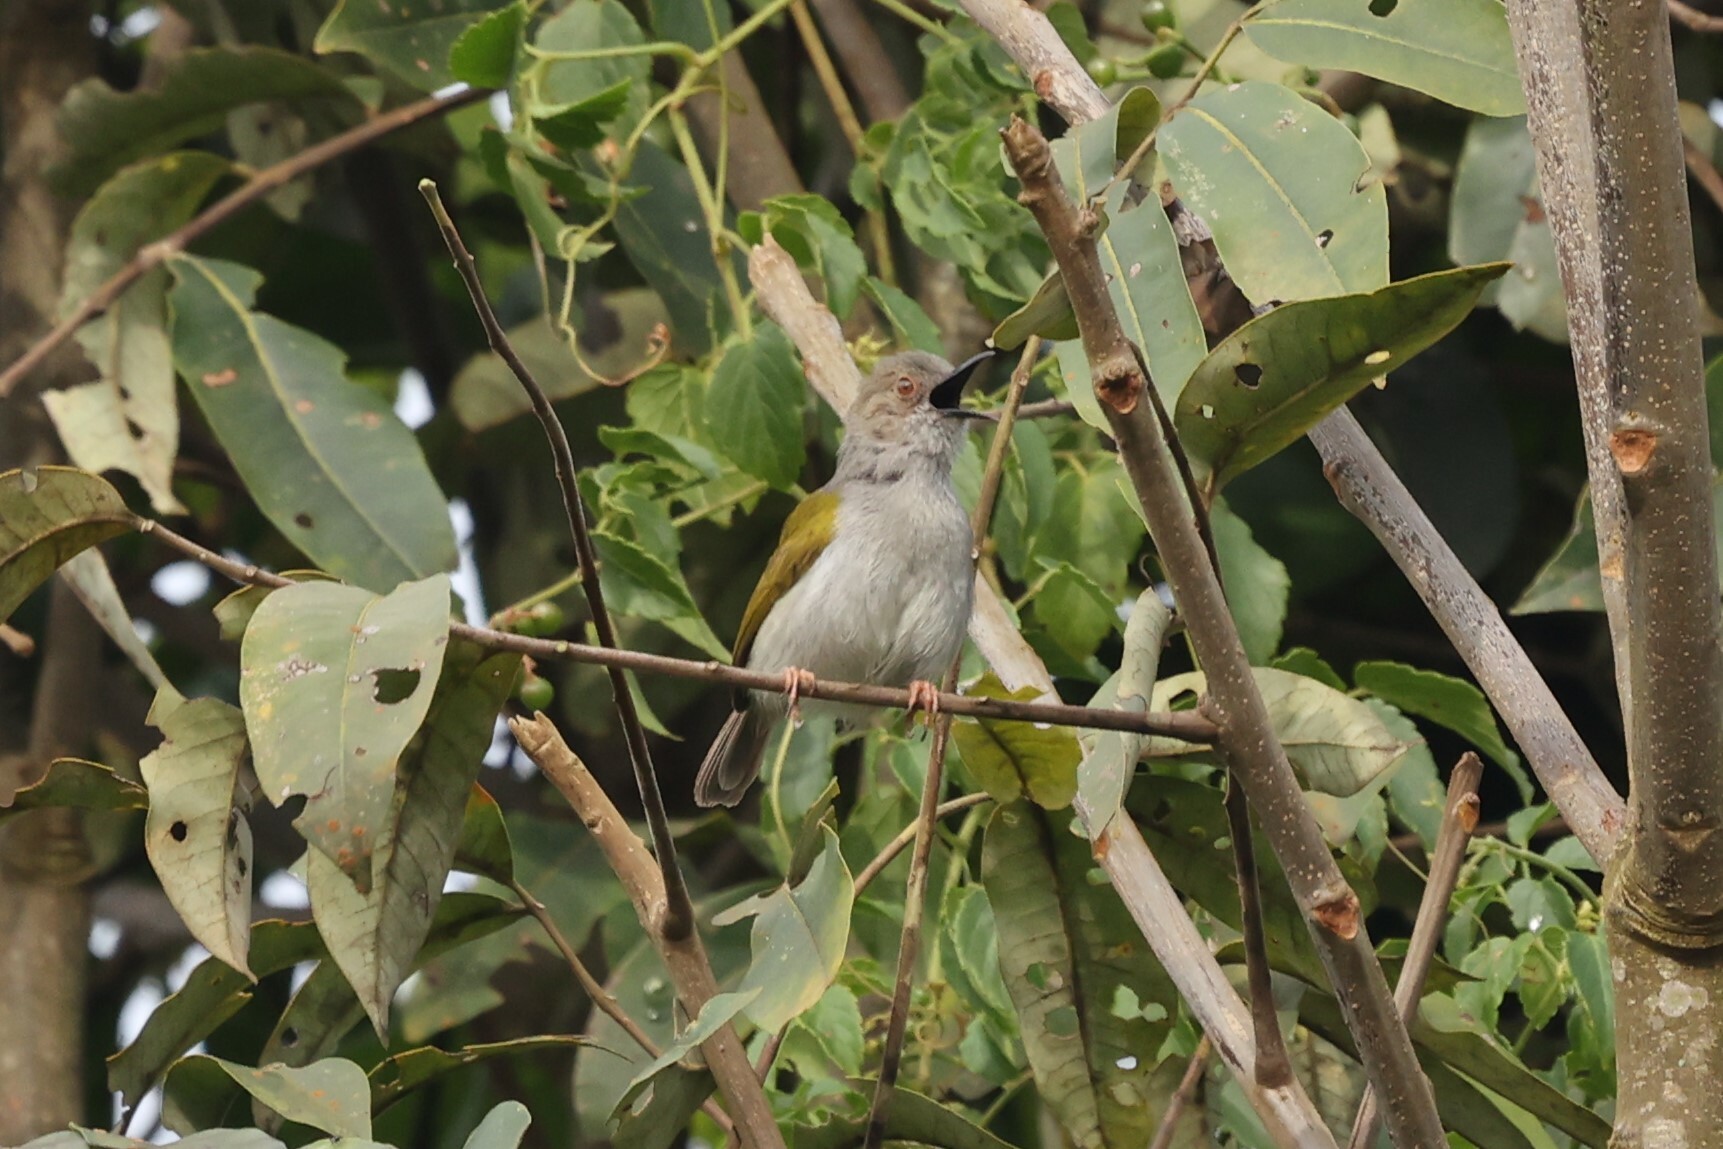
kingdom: Animalia
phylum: Chordata
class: Aves
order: Passeriformes
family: Cisticolidae
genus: Camaroptera
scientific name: Camaroptera brachyura
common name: Green-backed camaroptera
